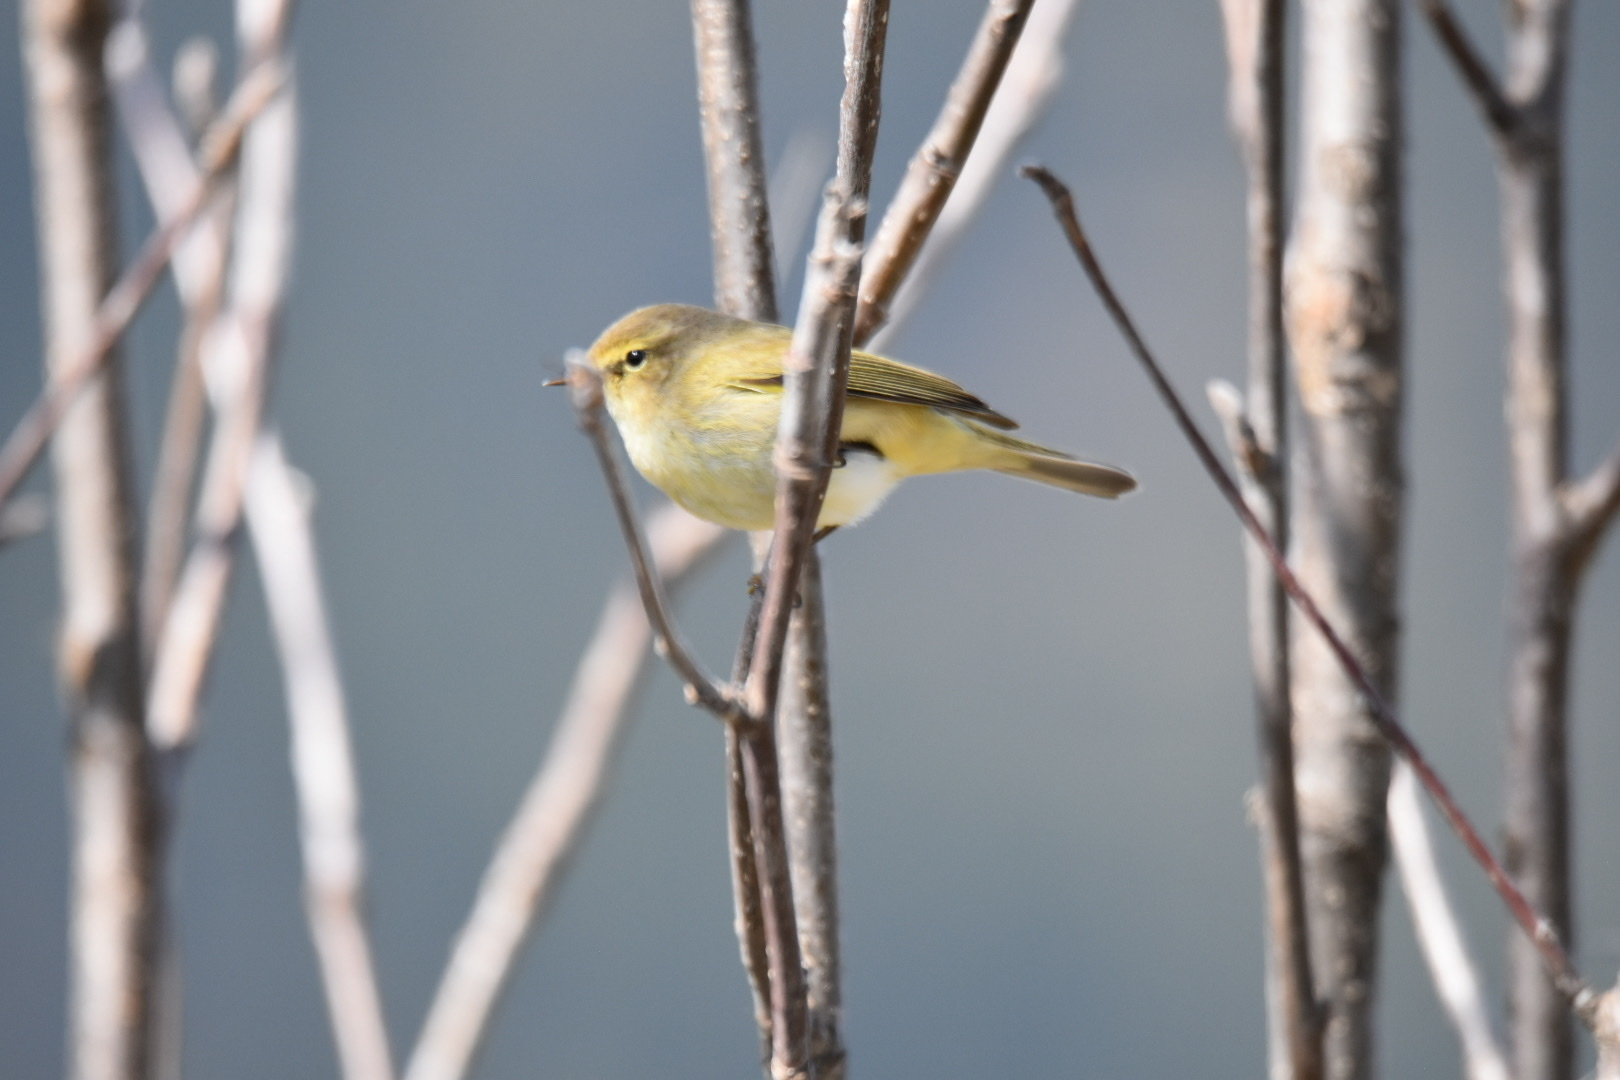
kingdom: Animalia
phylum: Chordata
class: Aves
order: Passeriformes
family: Phylloscopidae
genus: Phylloscopus
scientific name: Phylloscopus collybita
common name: Common chiffchaff
